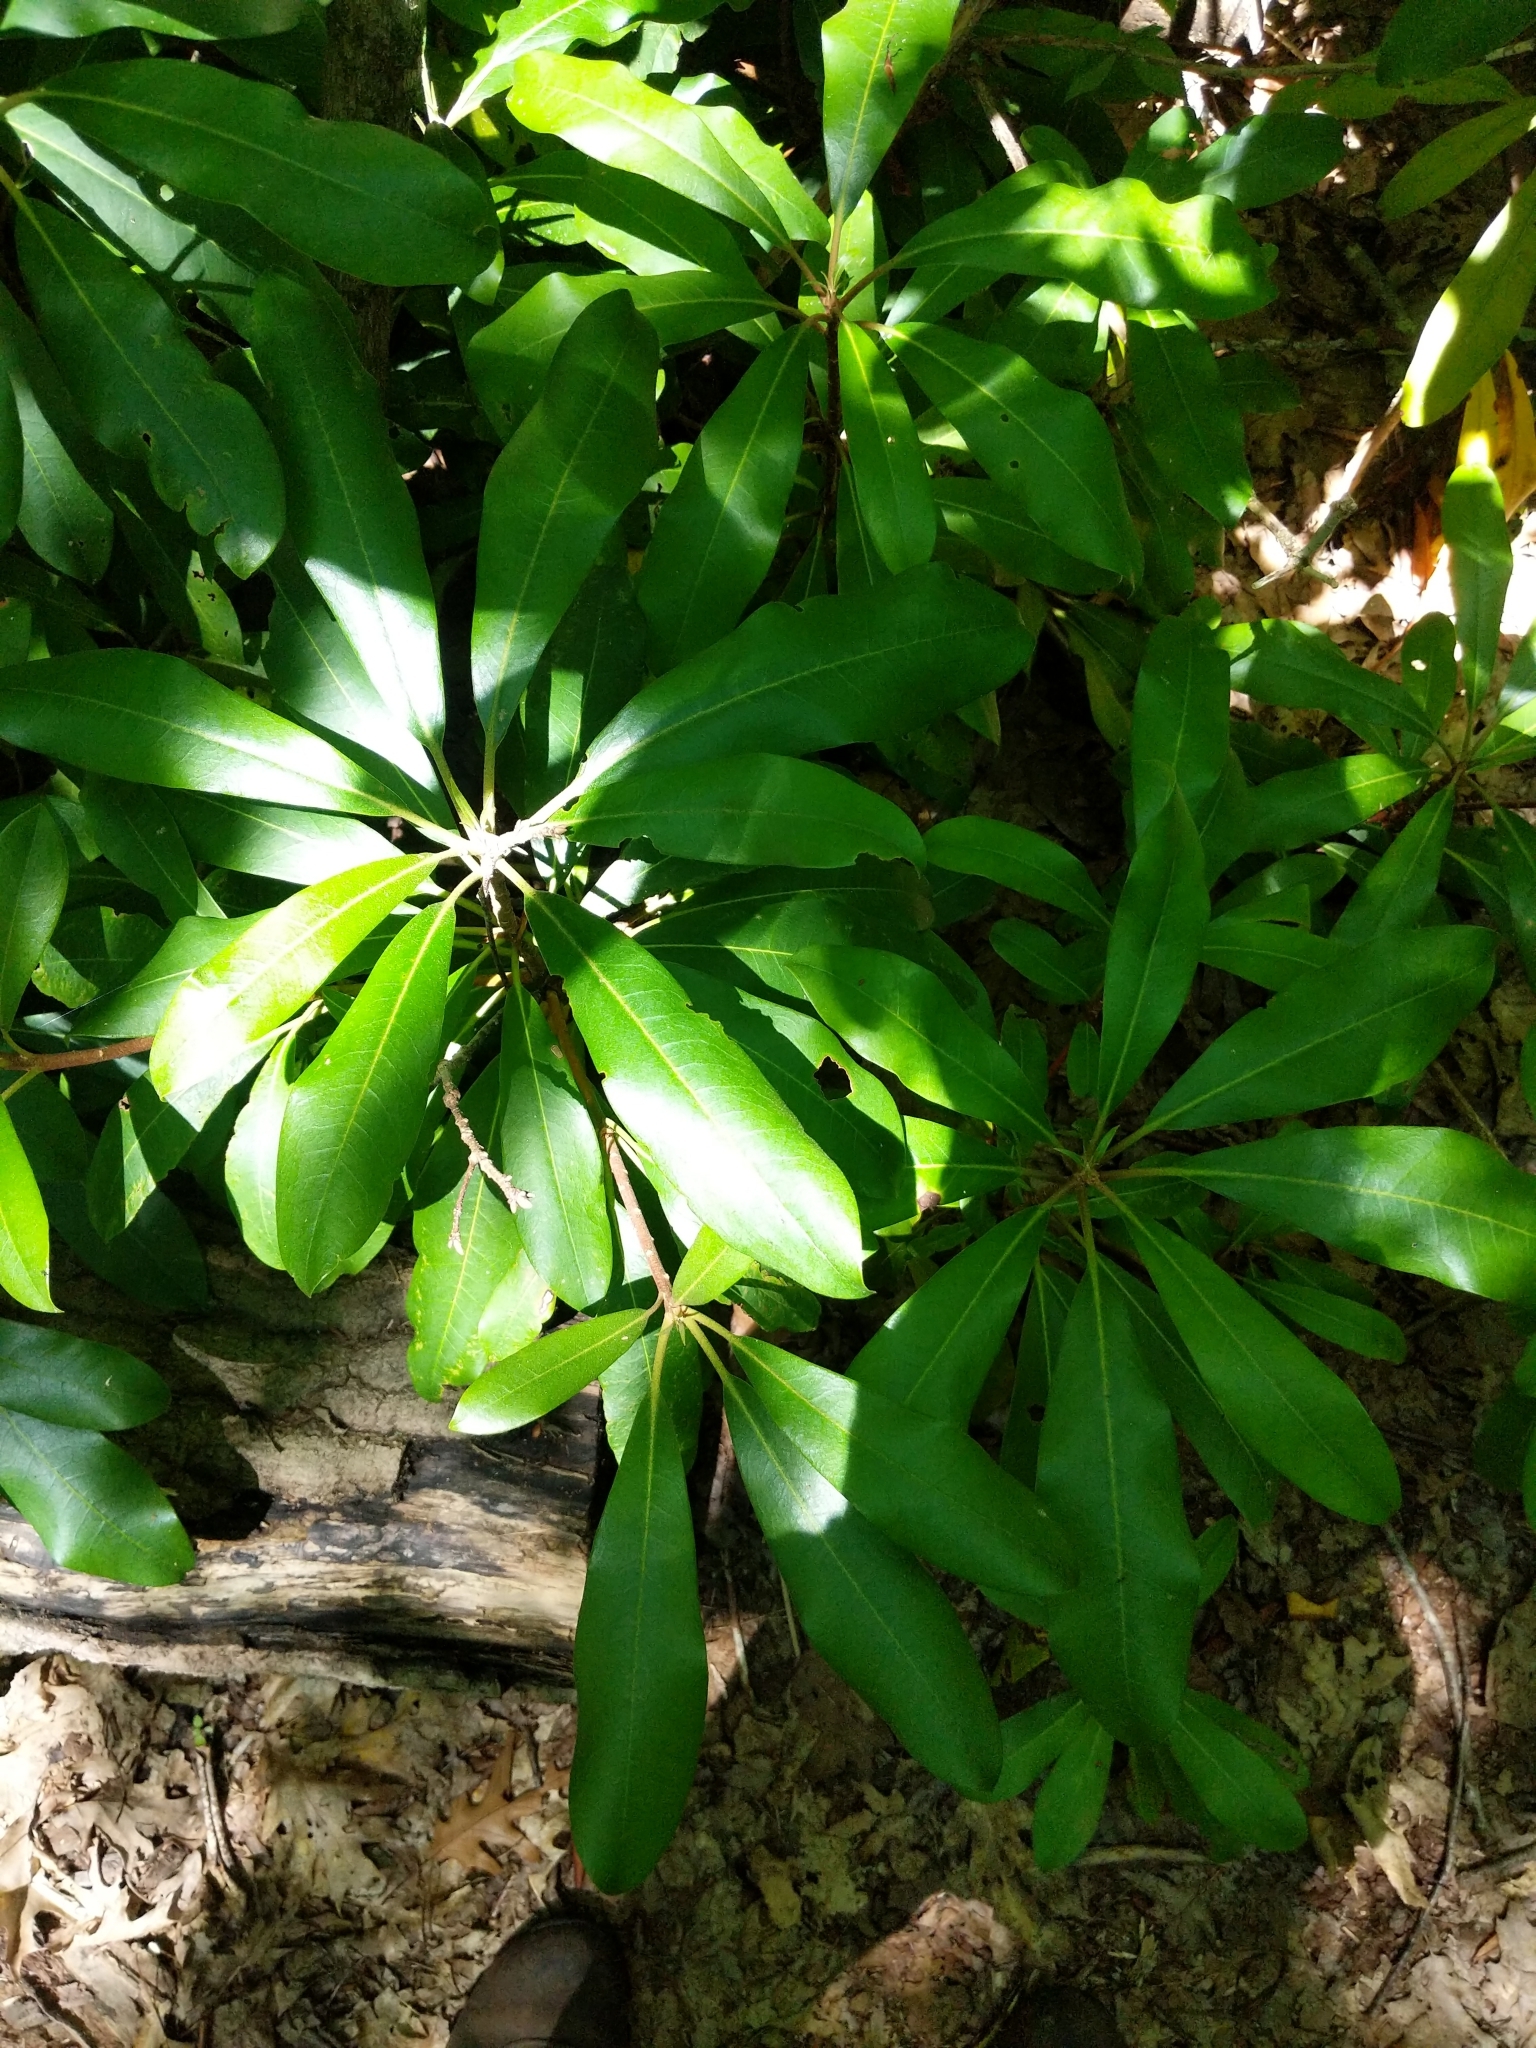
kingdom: Plantae
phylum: Tracheophyta
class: Magnoliopsida
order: Ericales
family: Ericaceae
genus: Rhododendron
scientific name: Rhododendron maximum
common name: Great rhododendron
